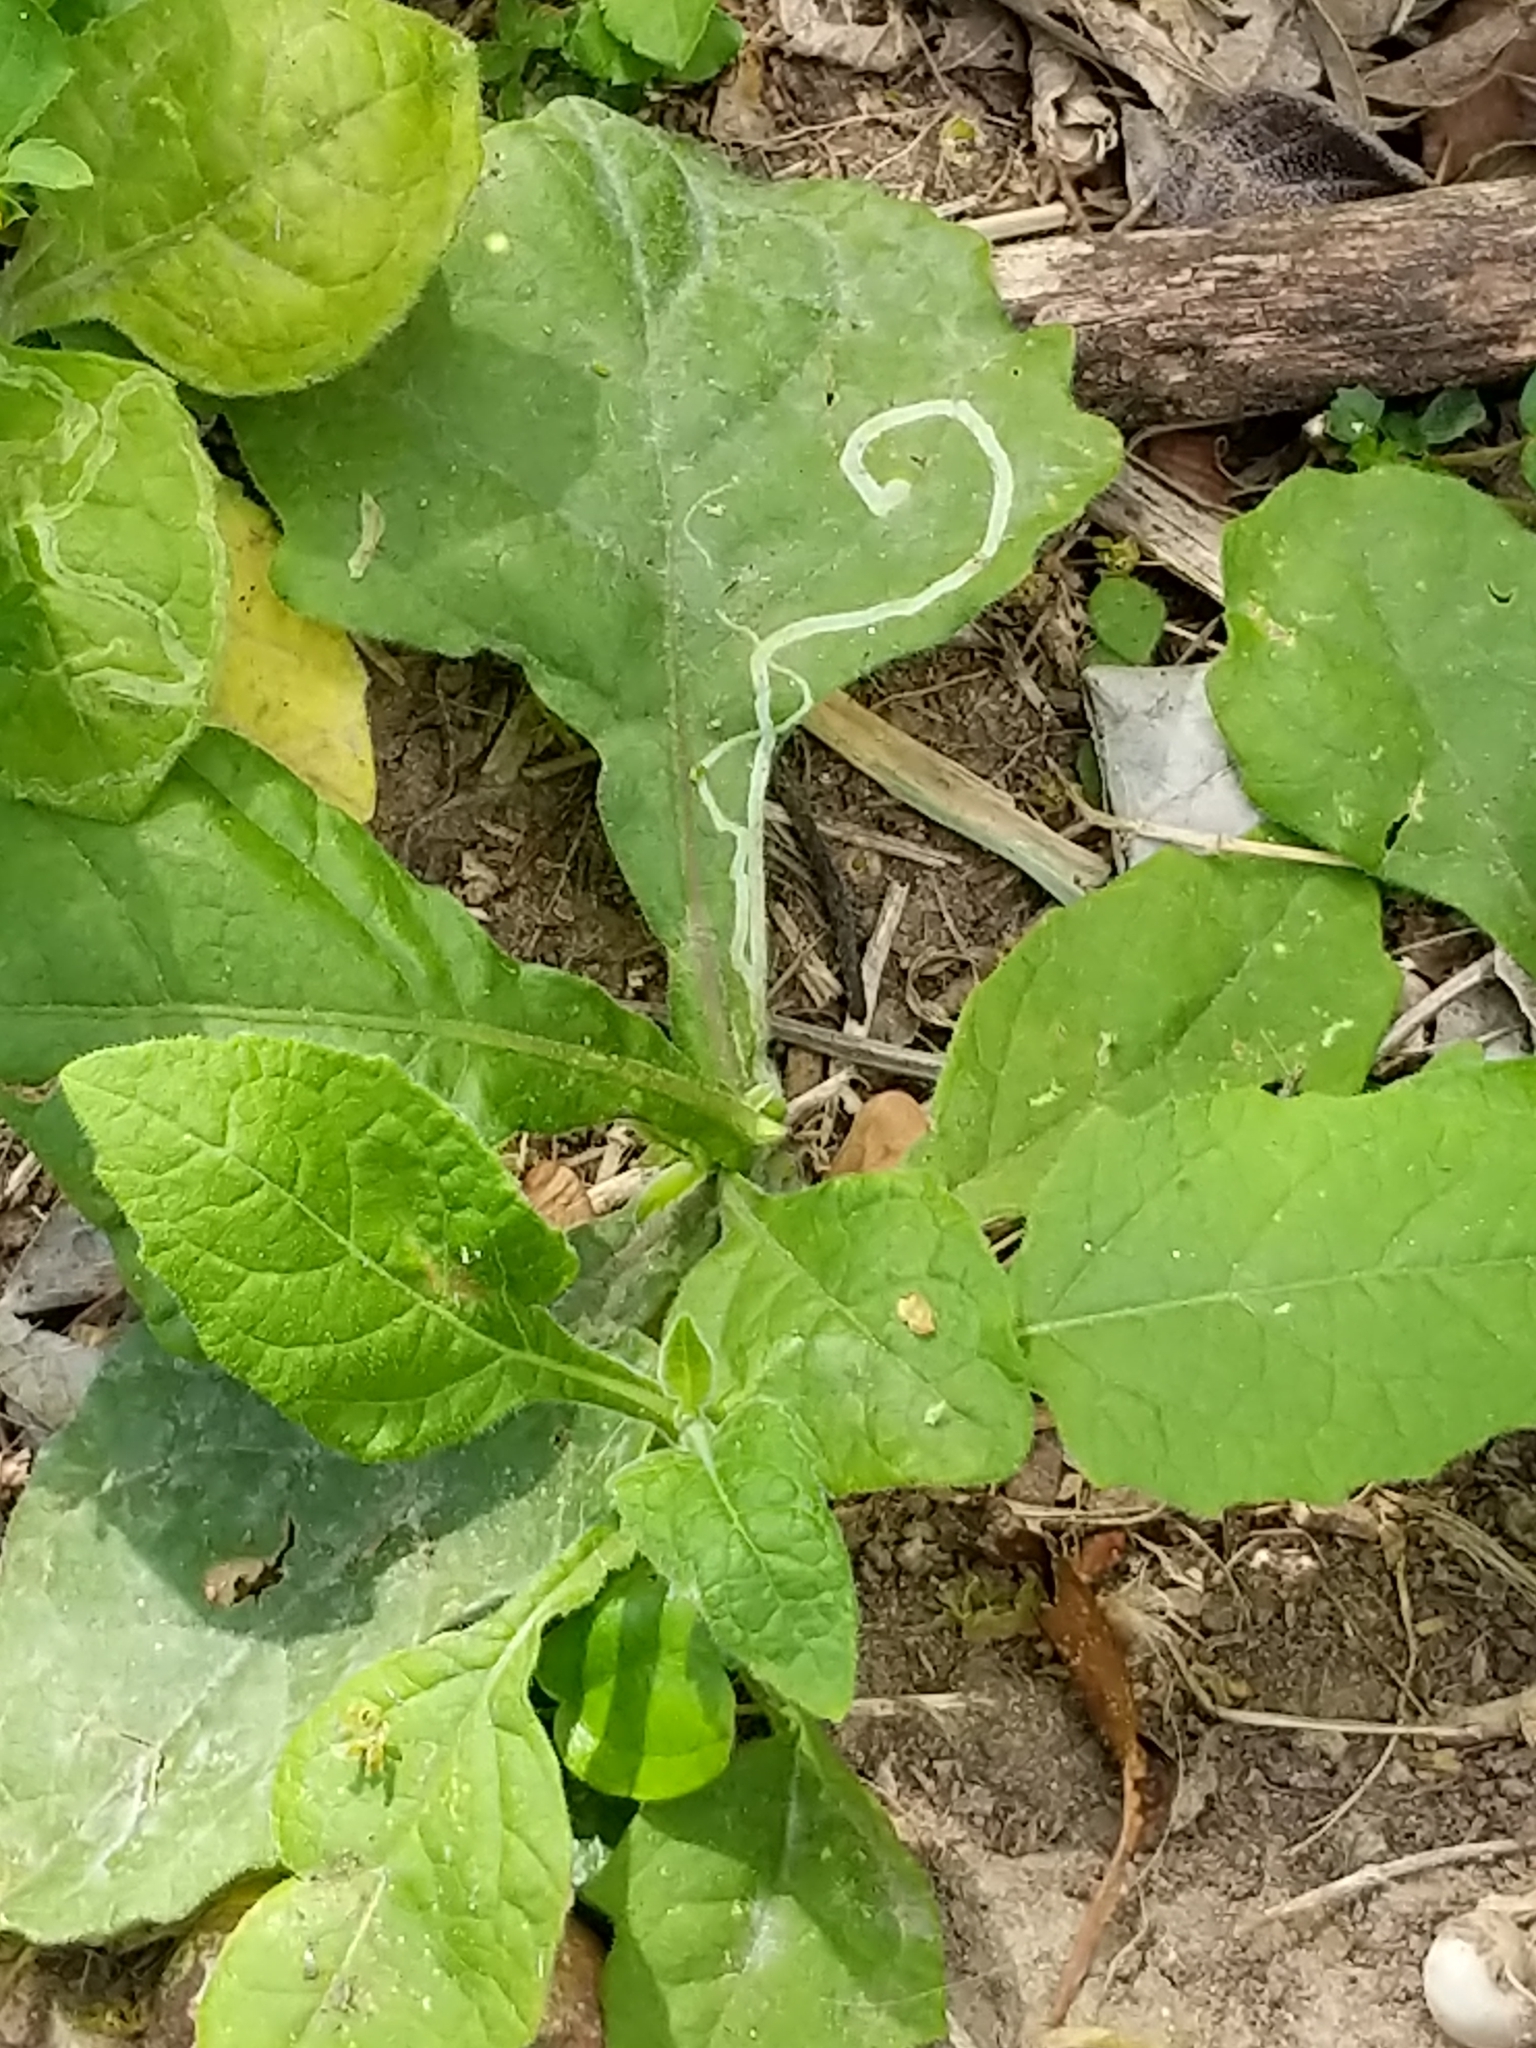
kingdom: Plantae
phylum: Tracheophyta
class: Magnoliopsida
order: Asterales
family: Asteraceae
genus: Verbesina
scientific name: Verbesina microptera
